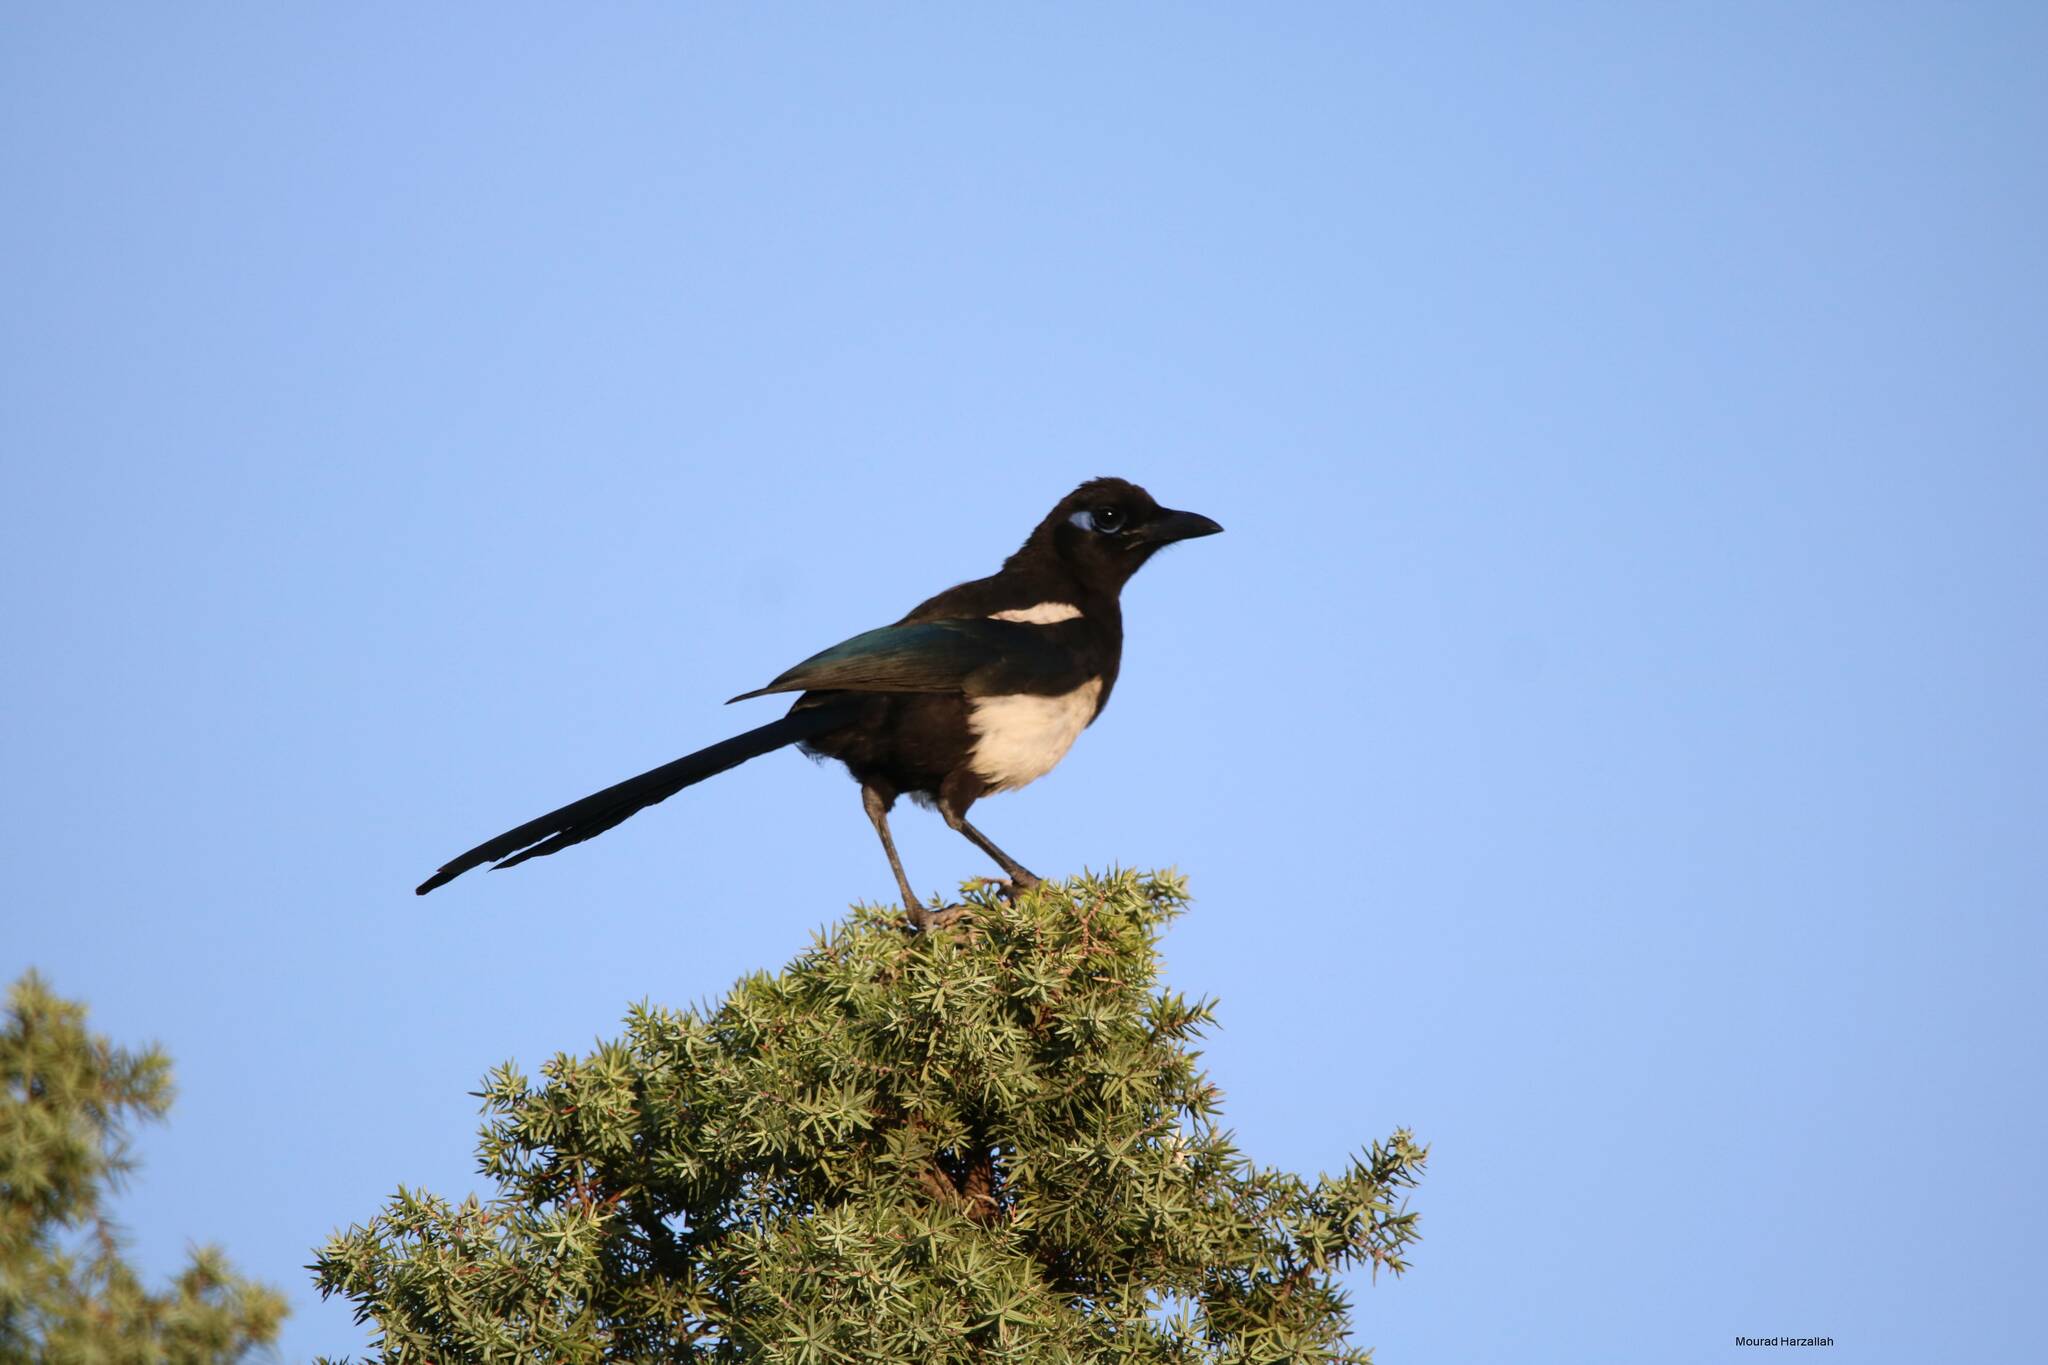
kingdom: Animalia
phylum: Chordata
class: Aves
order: Passeriformes
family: Corvidae
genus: Pica
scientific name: Pica mauritanica
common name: Maghreb magpie
